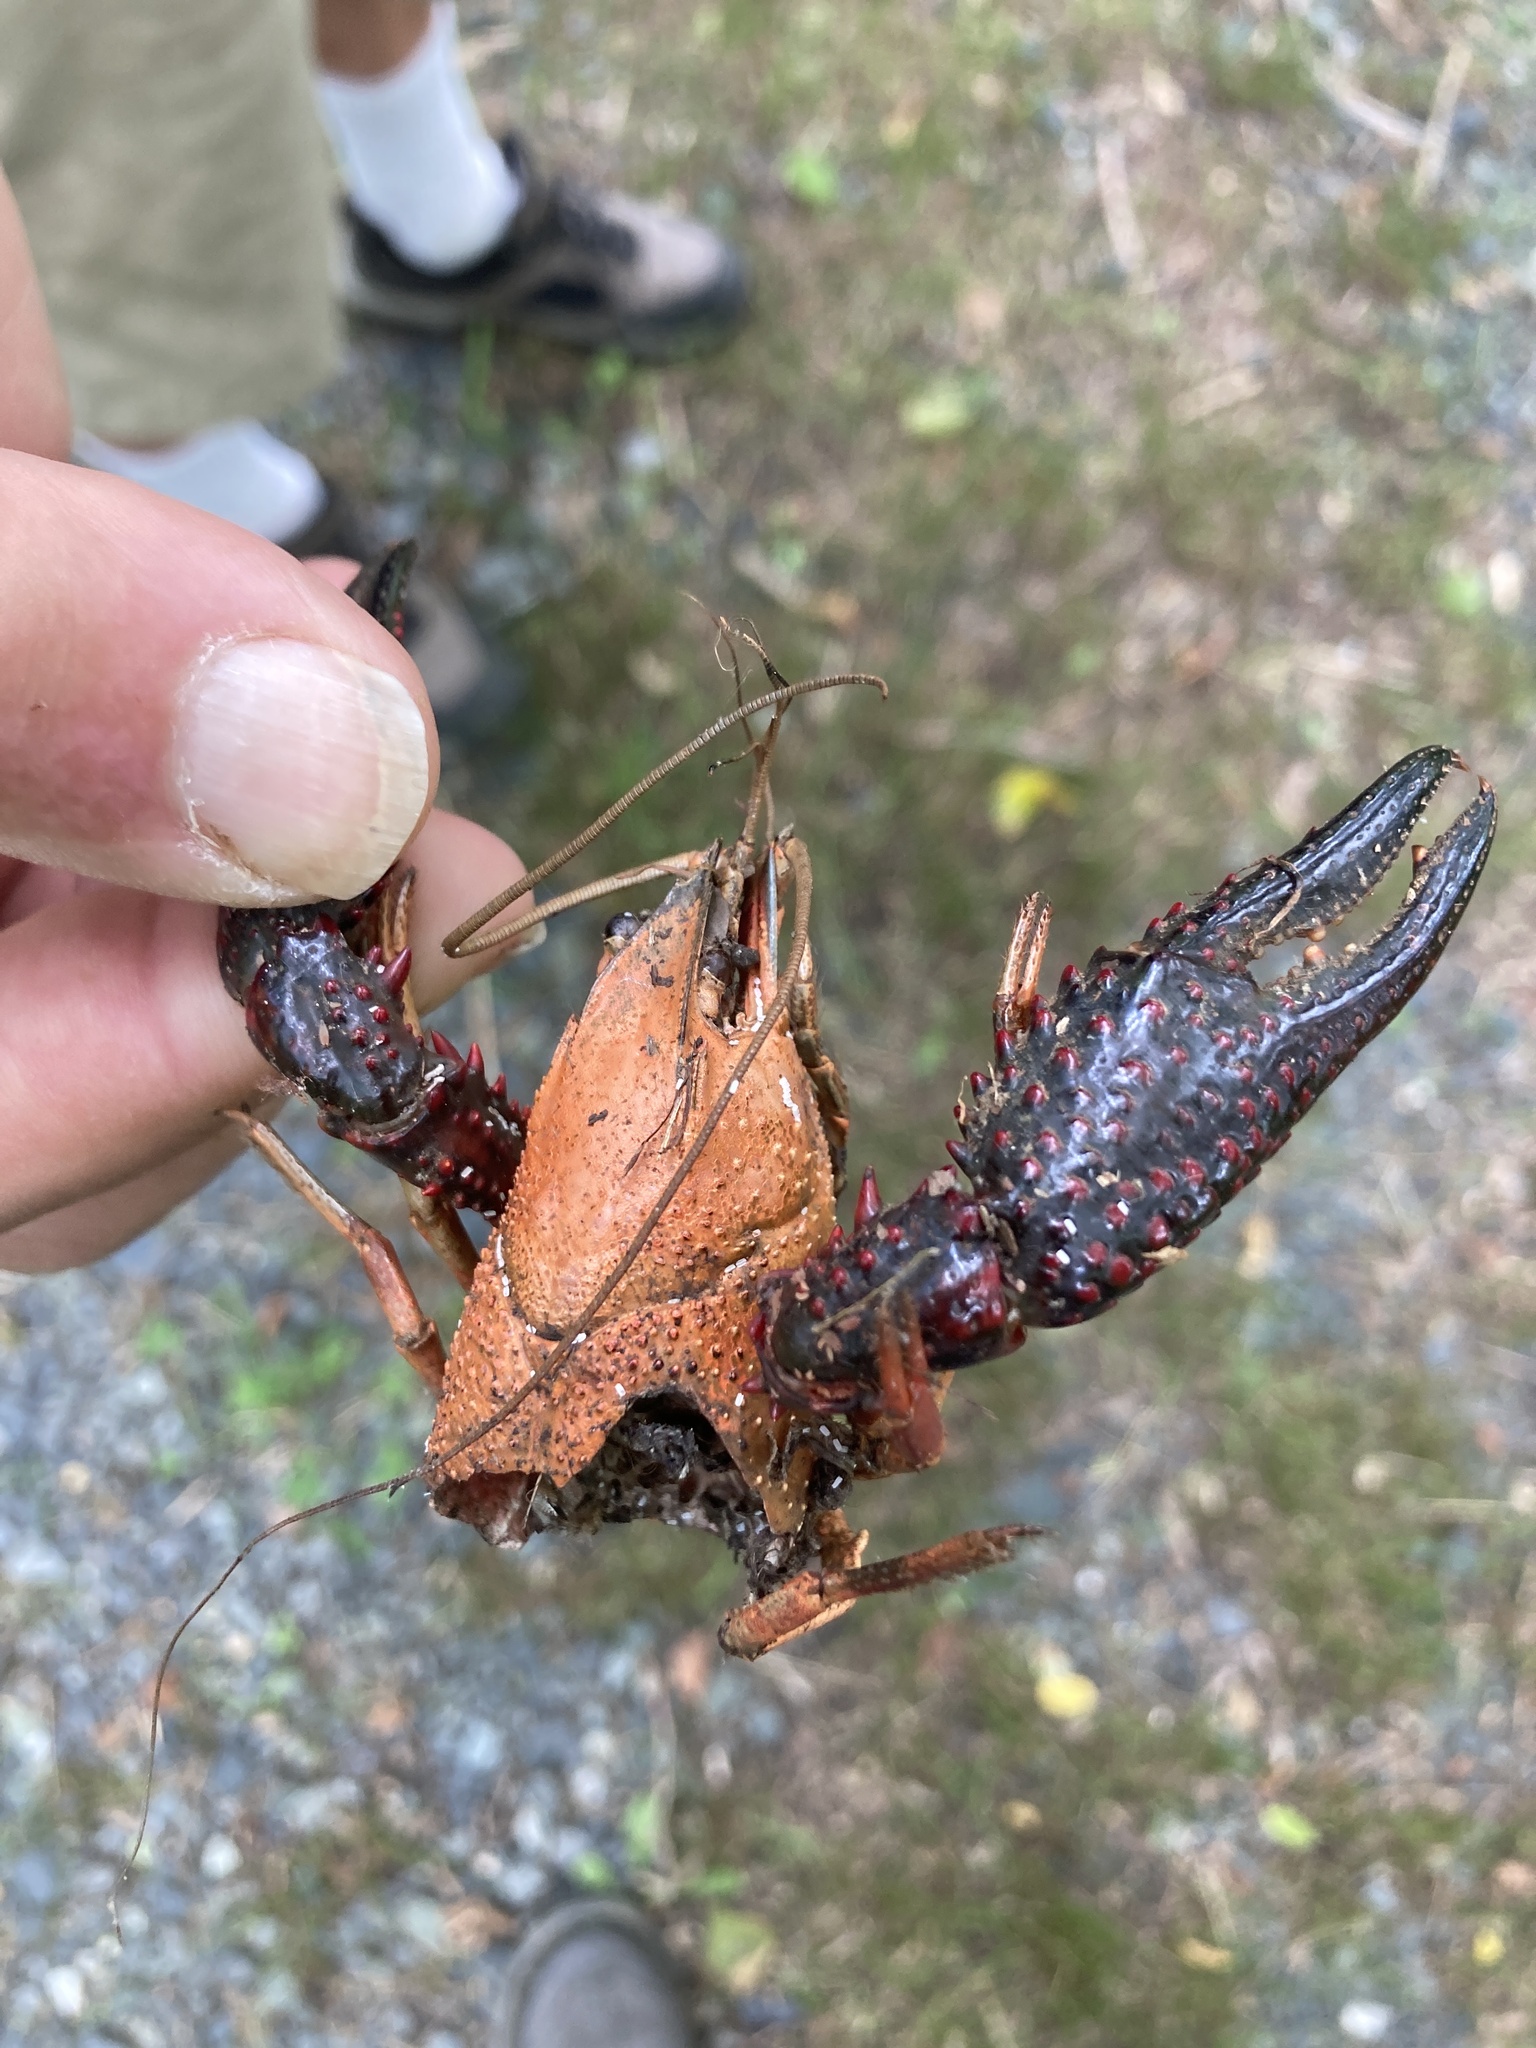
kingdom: Animalia
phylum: Arthropoda
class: Malacostraca
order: Decapoda
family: Cambaridae
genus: Procambarus
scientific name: Procambarus clarkii
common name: Red swamp crayfish
